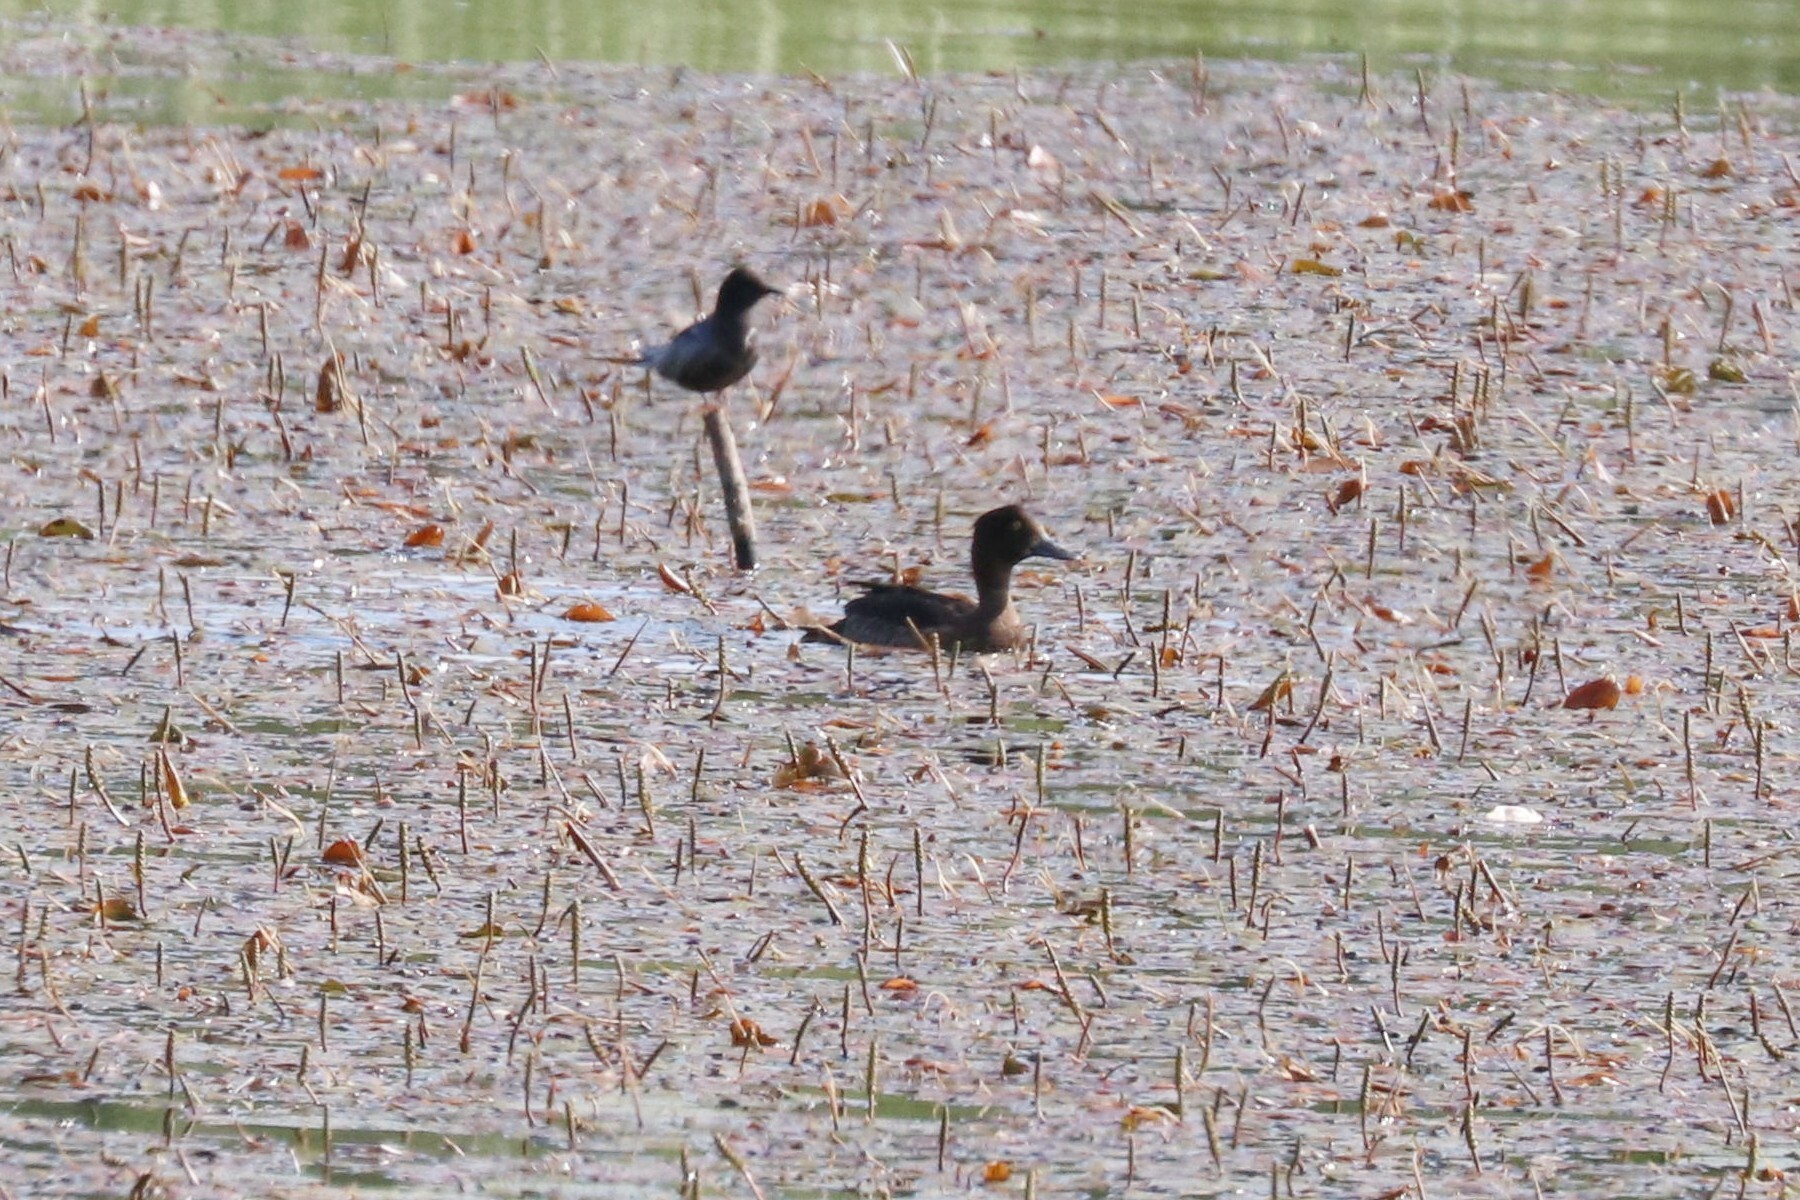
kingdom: Animalia
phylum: Chordata
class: Aves
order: Anseriformes
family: Anatidae
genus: Aythya
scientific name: Aythya fuligula
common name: Tufted duck
